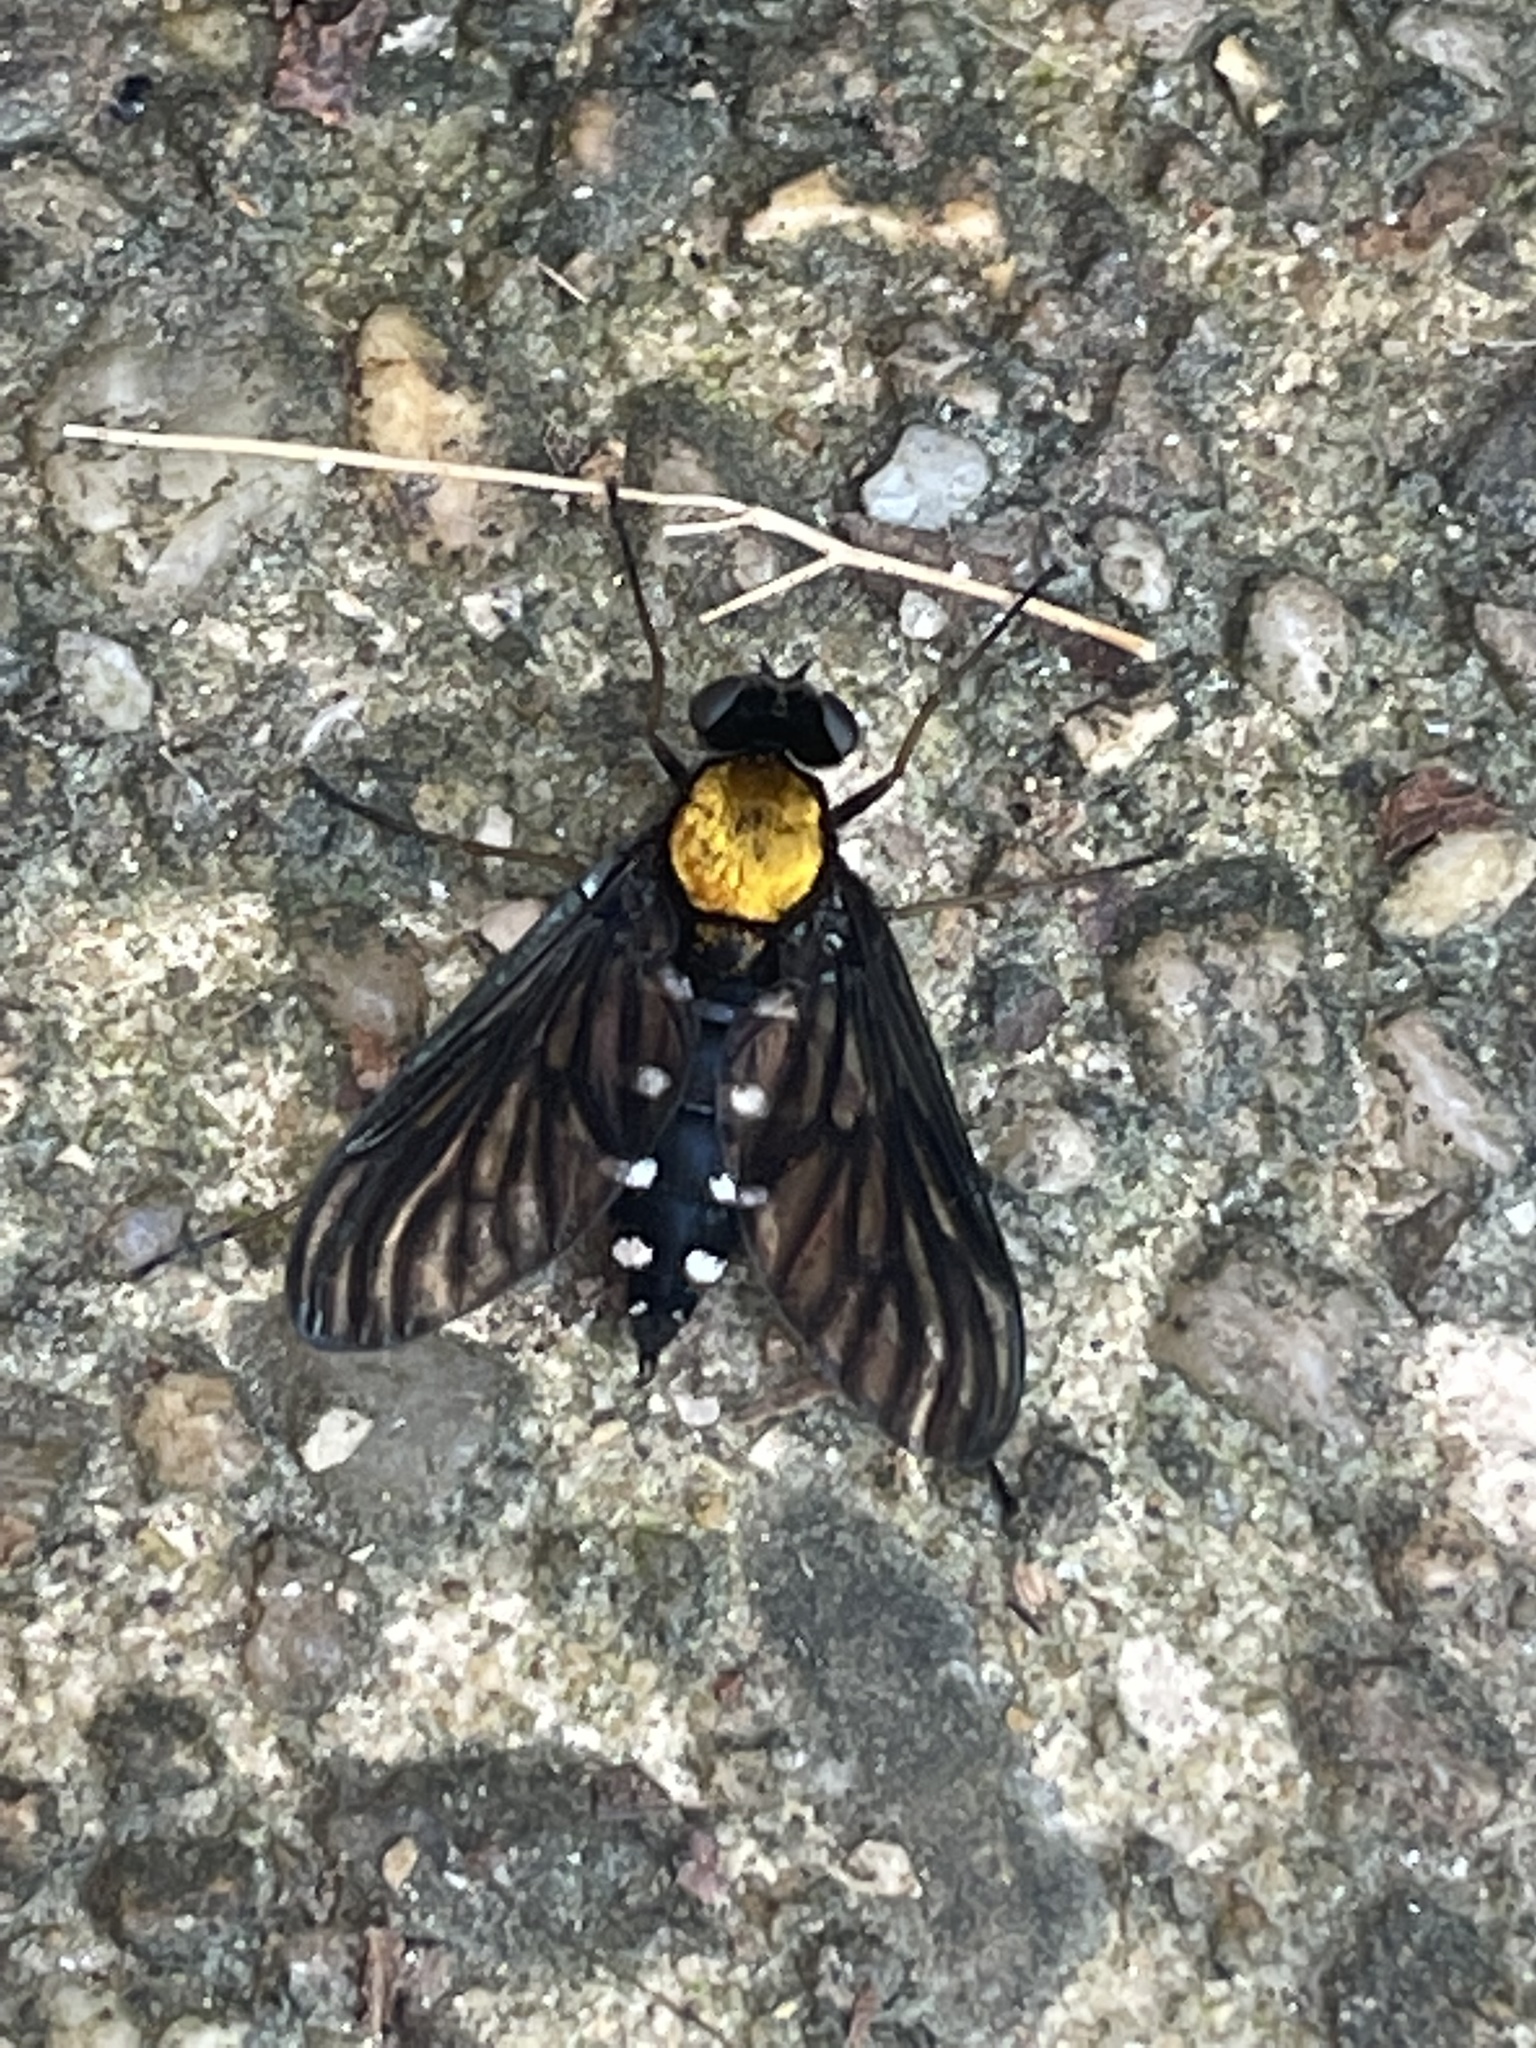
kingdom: Animalia
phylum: Arthropoda
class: Insecta
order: Diptera
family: Rhagionidae
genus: Chrysopilus
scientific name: Chrysopilus thoracicus
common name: Golden-backed snipe fly
